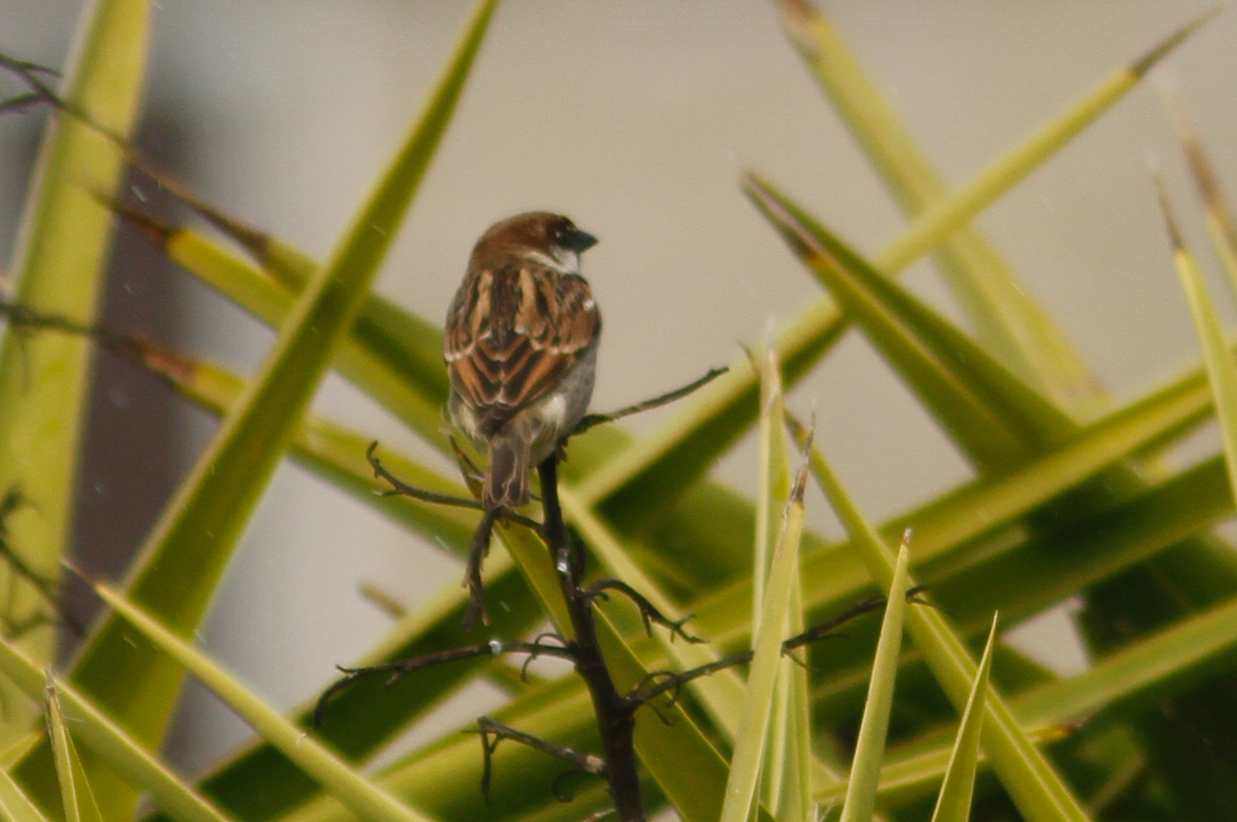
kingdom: Animalia
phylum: Chordata
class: Aves
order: Passeriformes
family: Passeridae
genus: Passer
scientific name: Passer italiae
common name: Italian sparrow
